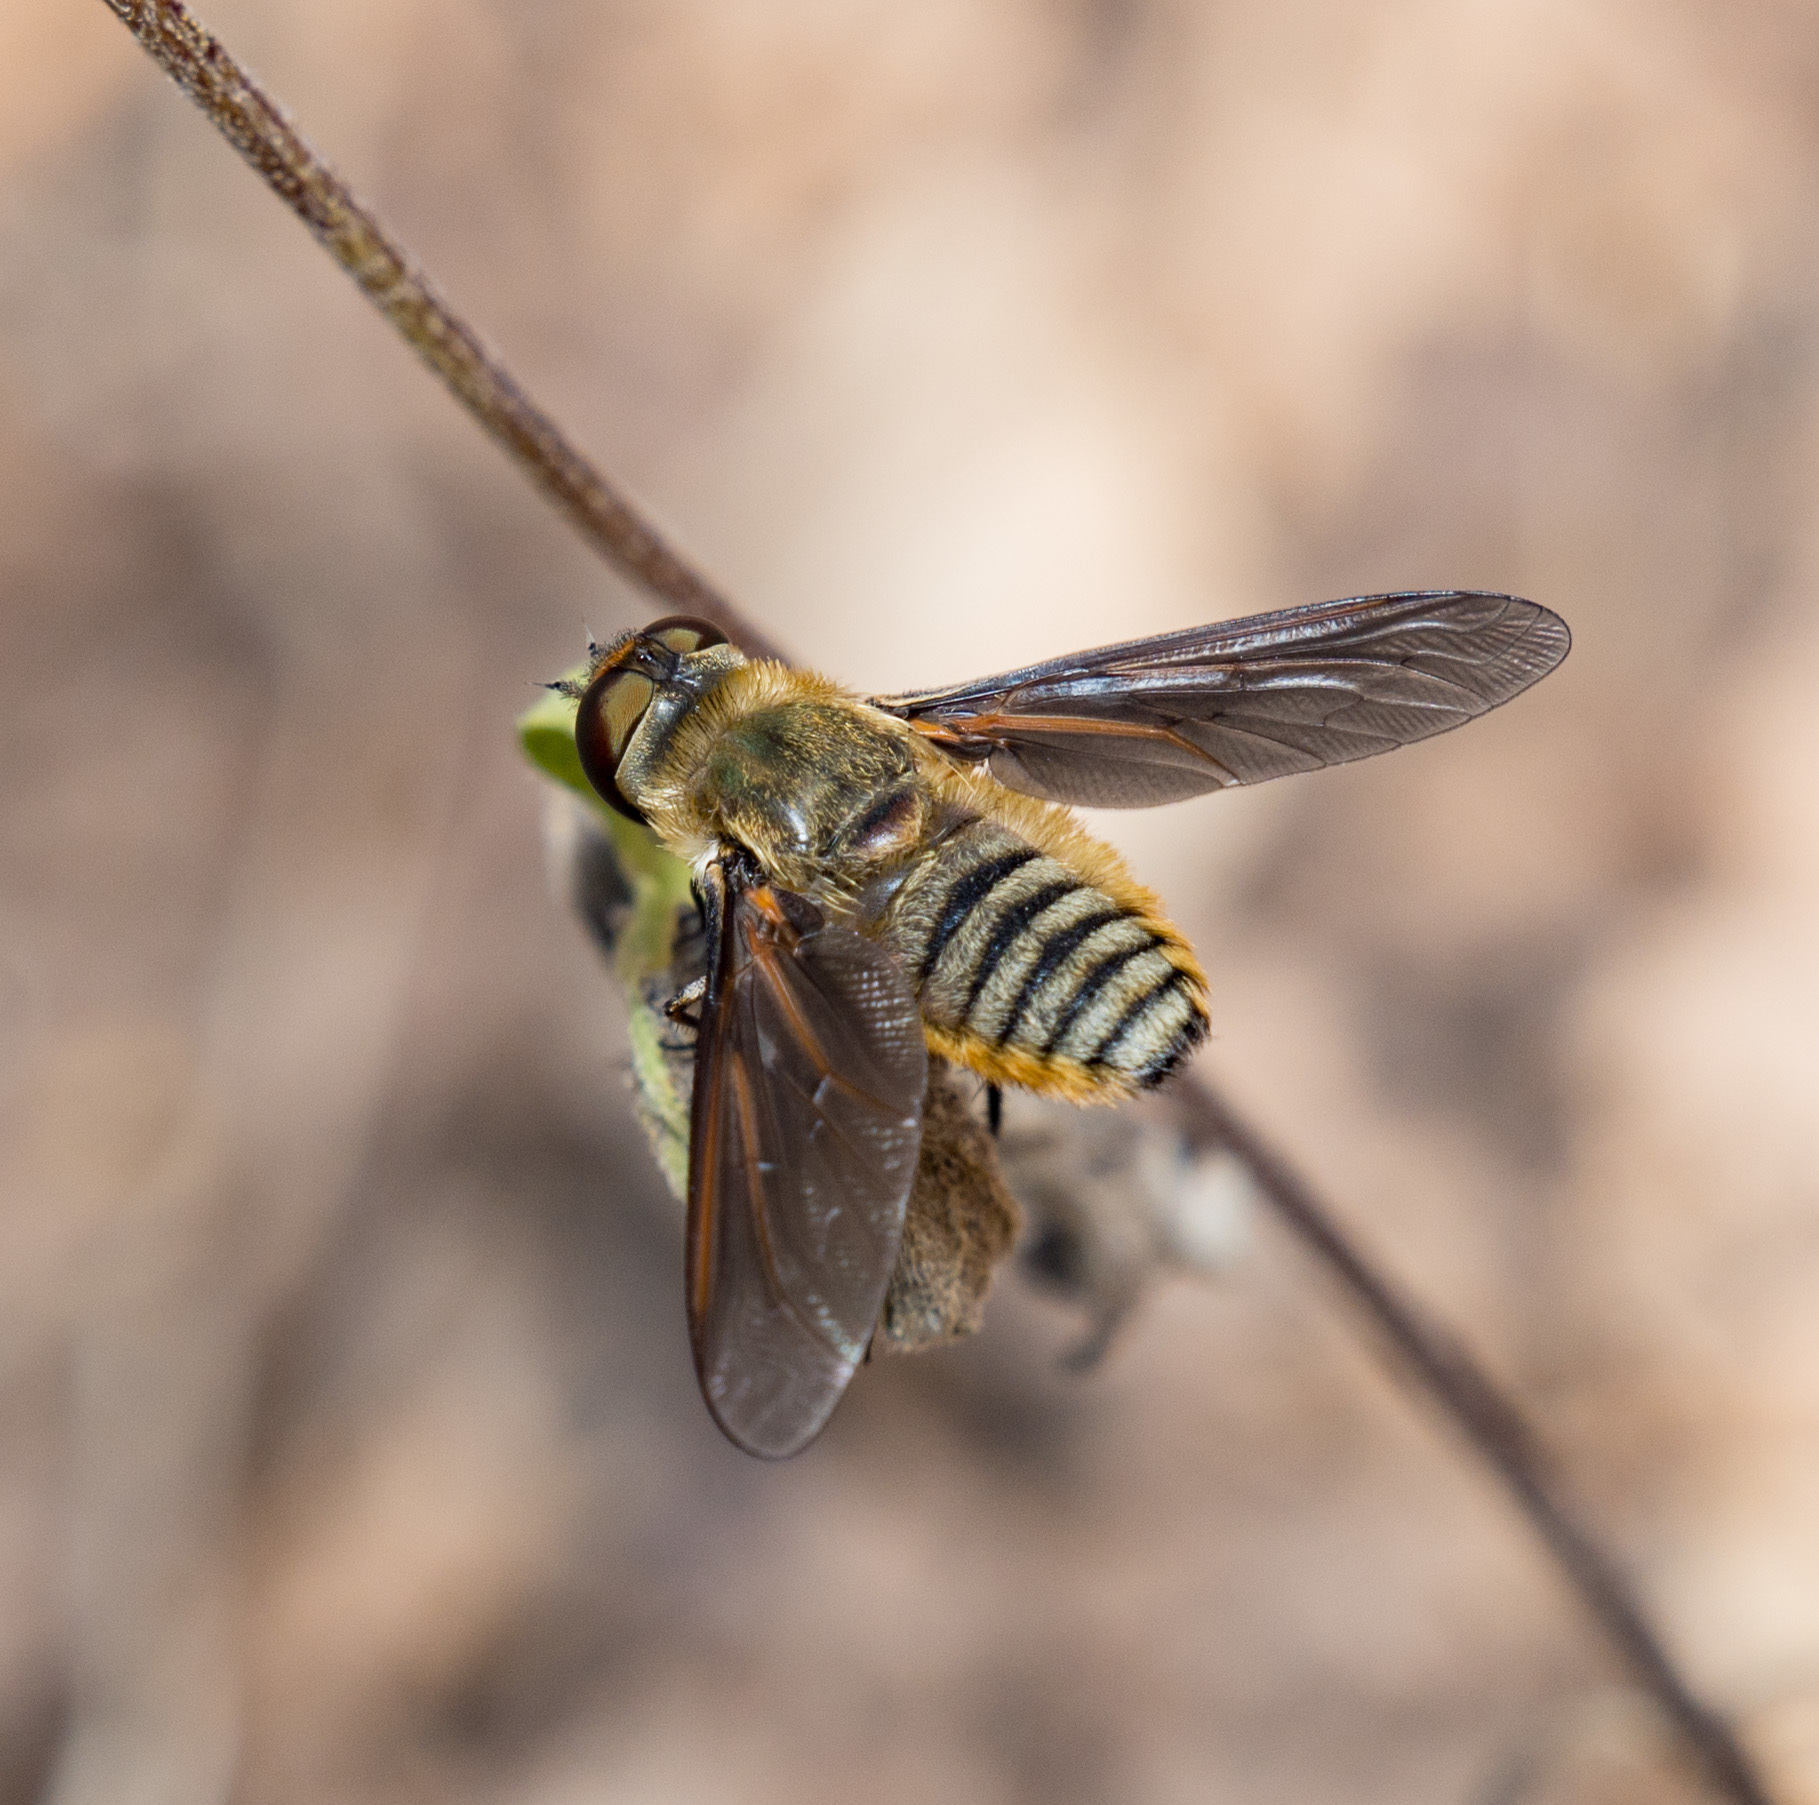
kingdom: Animalia
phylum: Arthropoda
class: Insecta
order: Diptera
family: Bombyliidae
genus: Poecilanthrax
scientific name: Poecilanthrax lucifer
